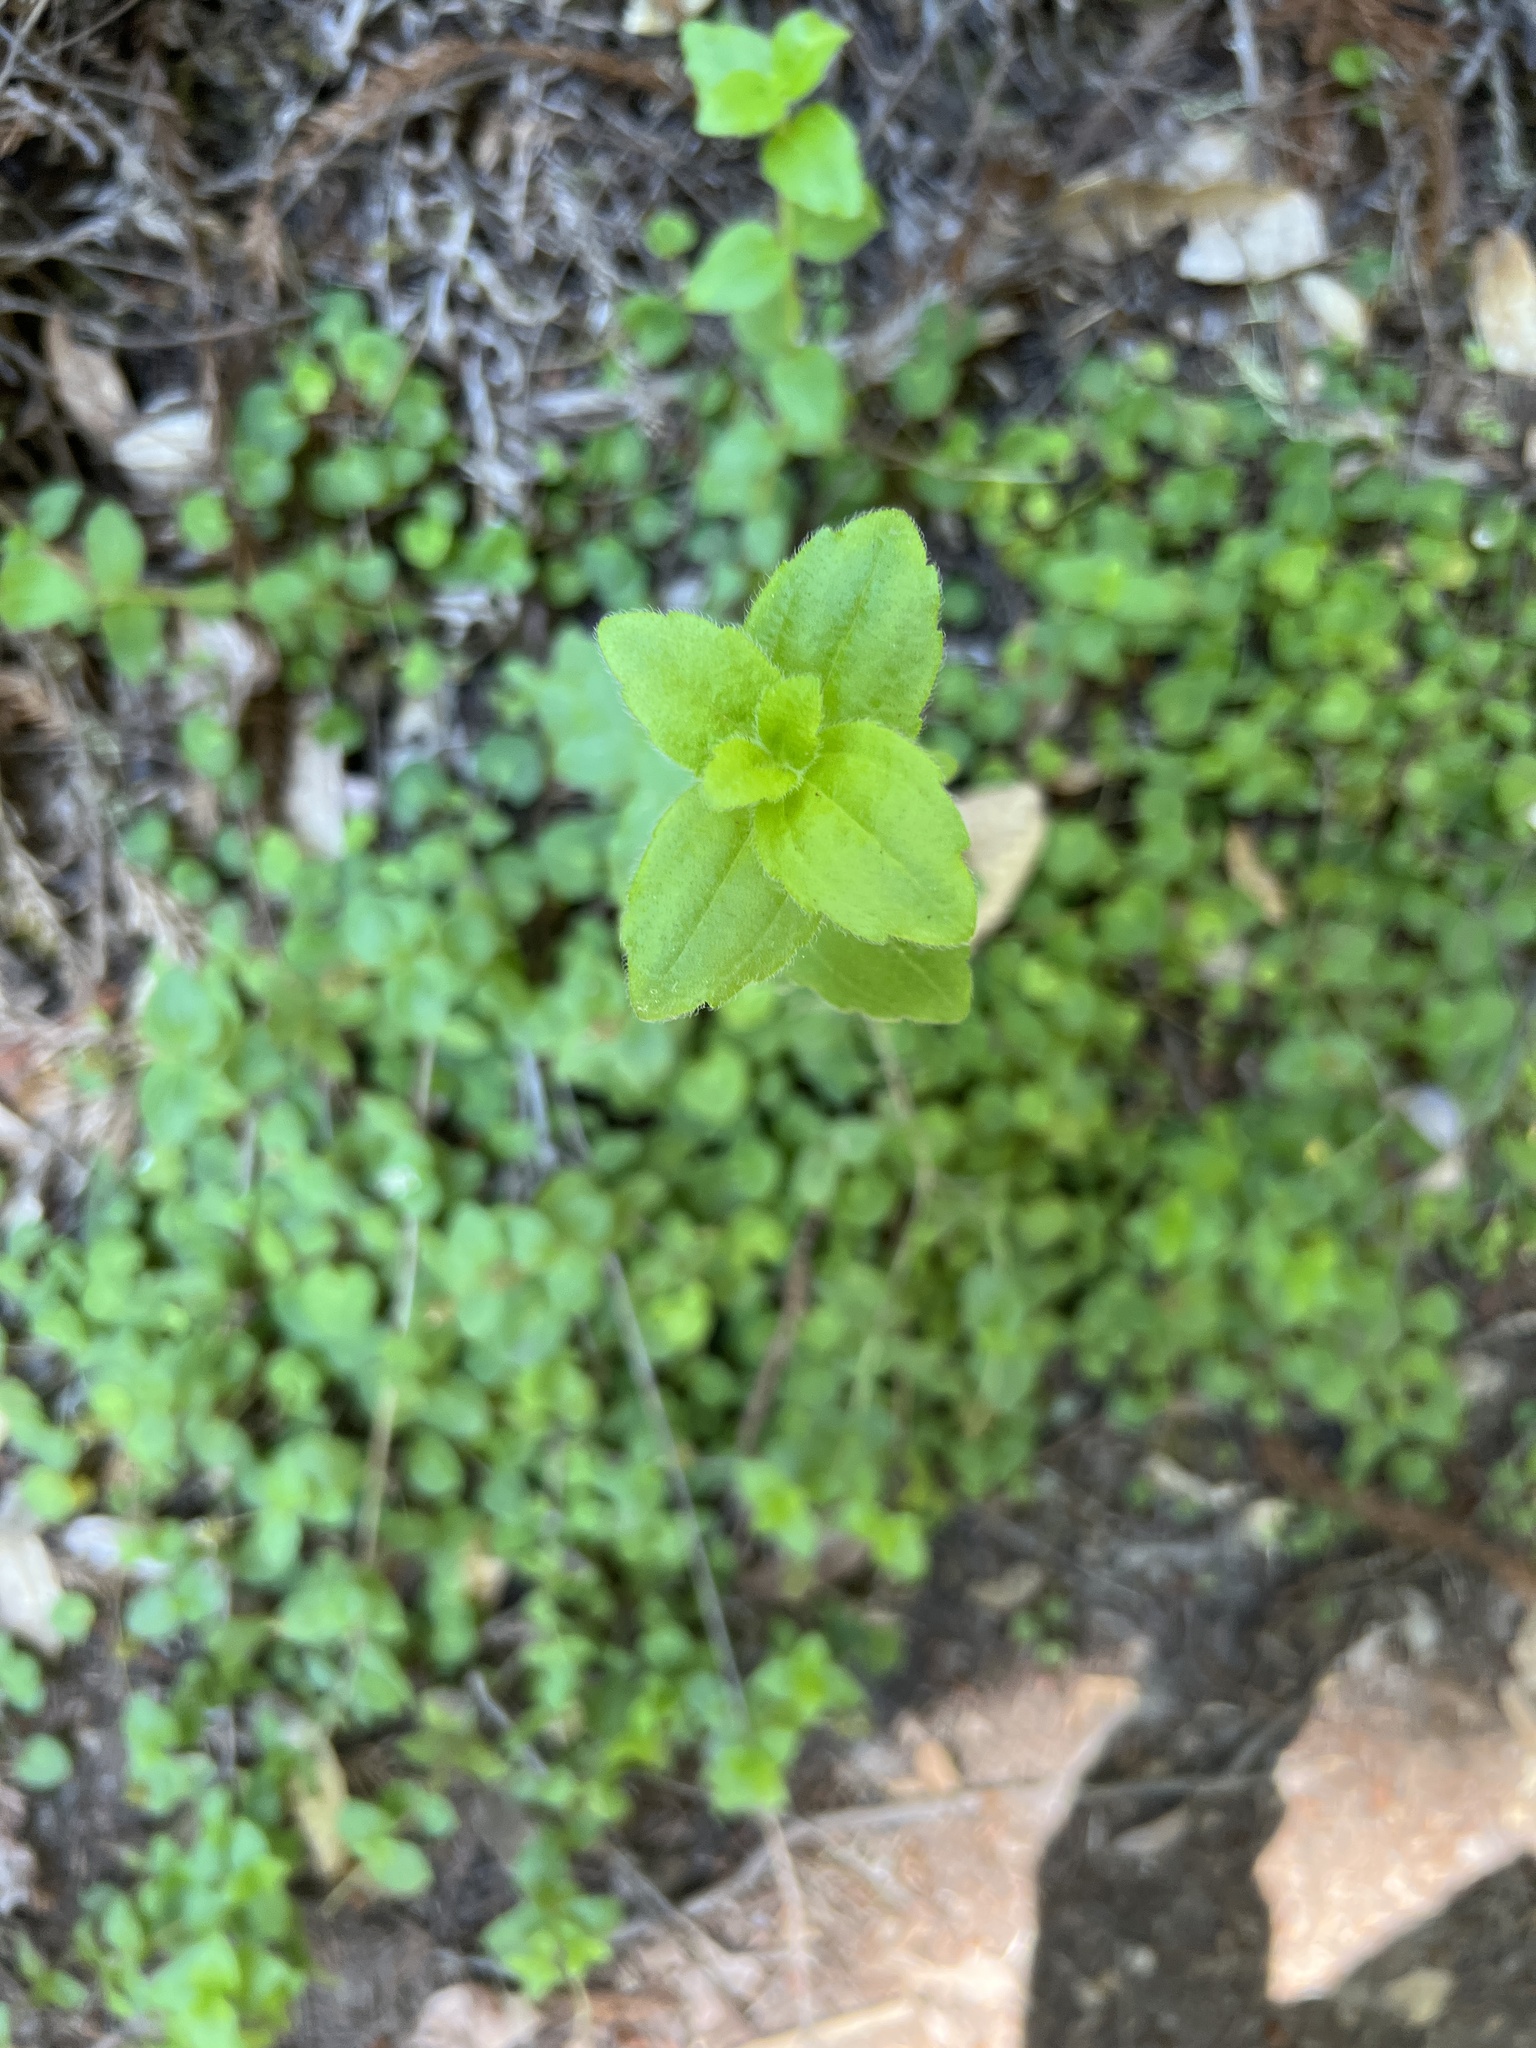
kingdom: Plantae
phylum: Tracheophyta
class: Magnoliopsida
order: Cornales
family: Hydrangeaceae
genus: Whipplea
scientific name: Whipplea modesta
